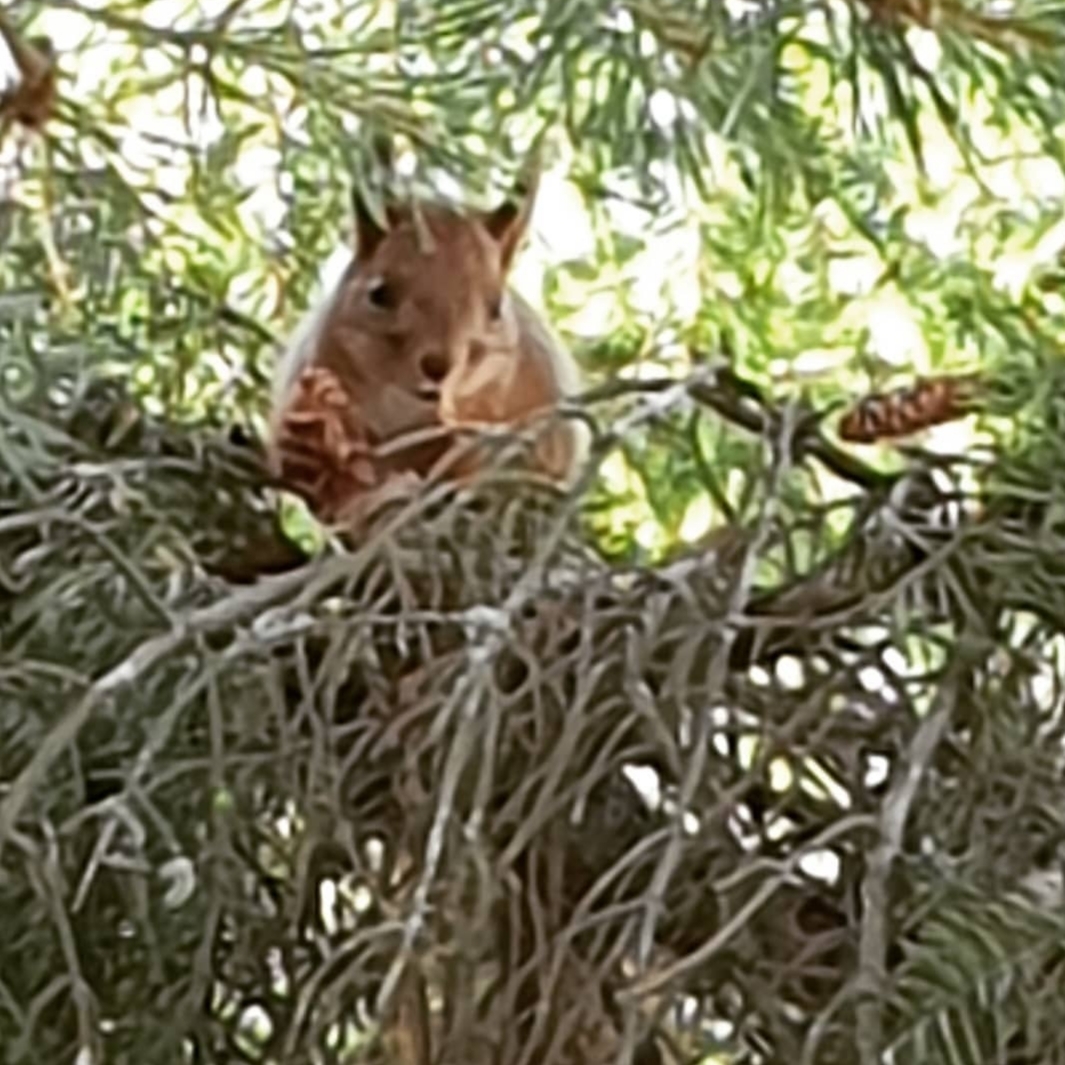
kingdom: Animalia
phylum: Chordata
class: Mammalia
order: Rodentia
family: Sciuridae
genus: Sciurus
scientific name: Sciurus vulgaris
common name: Eurasian red squirrel
